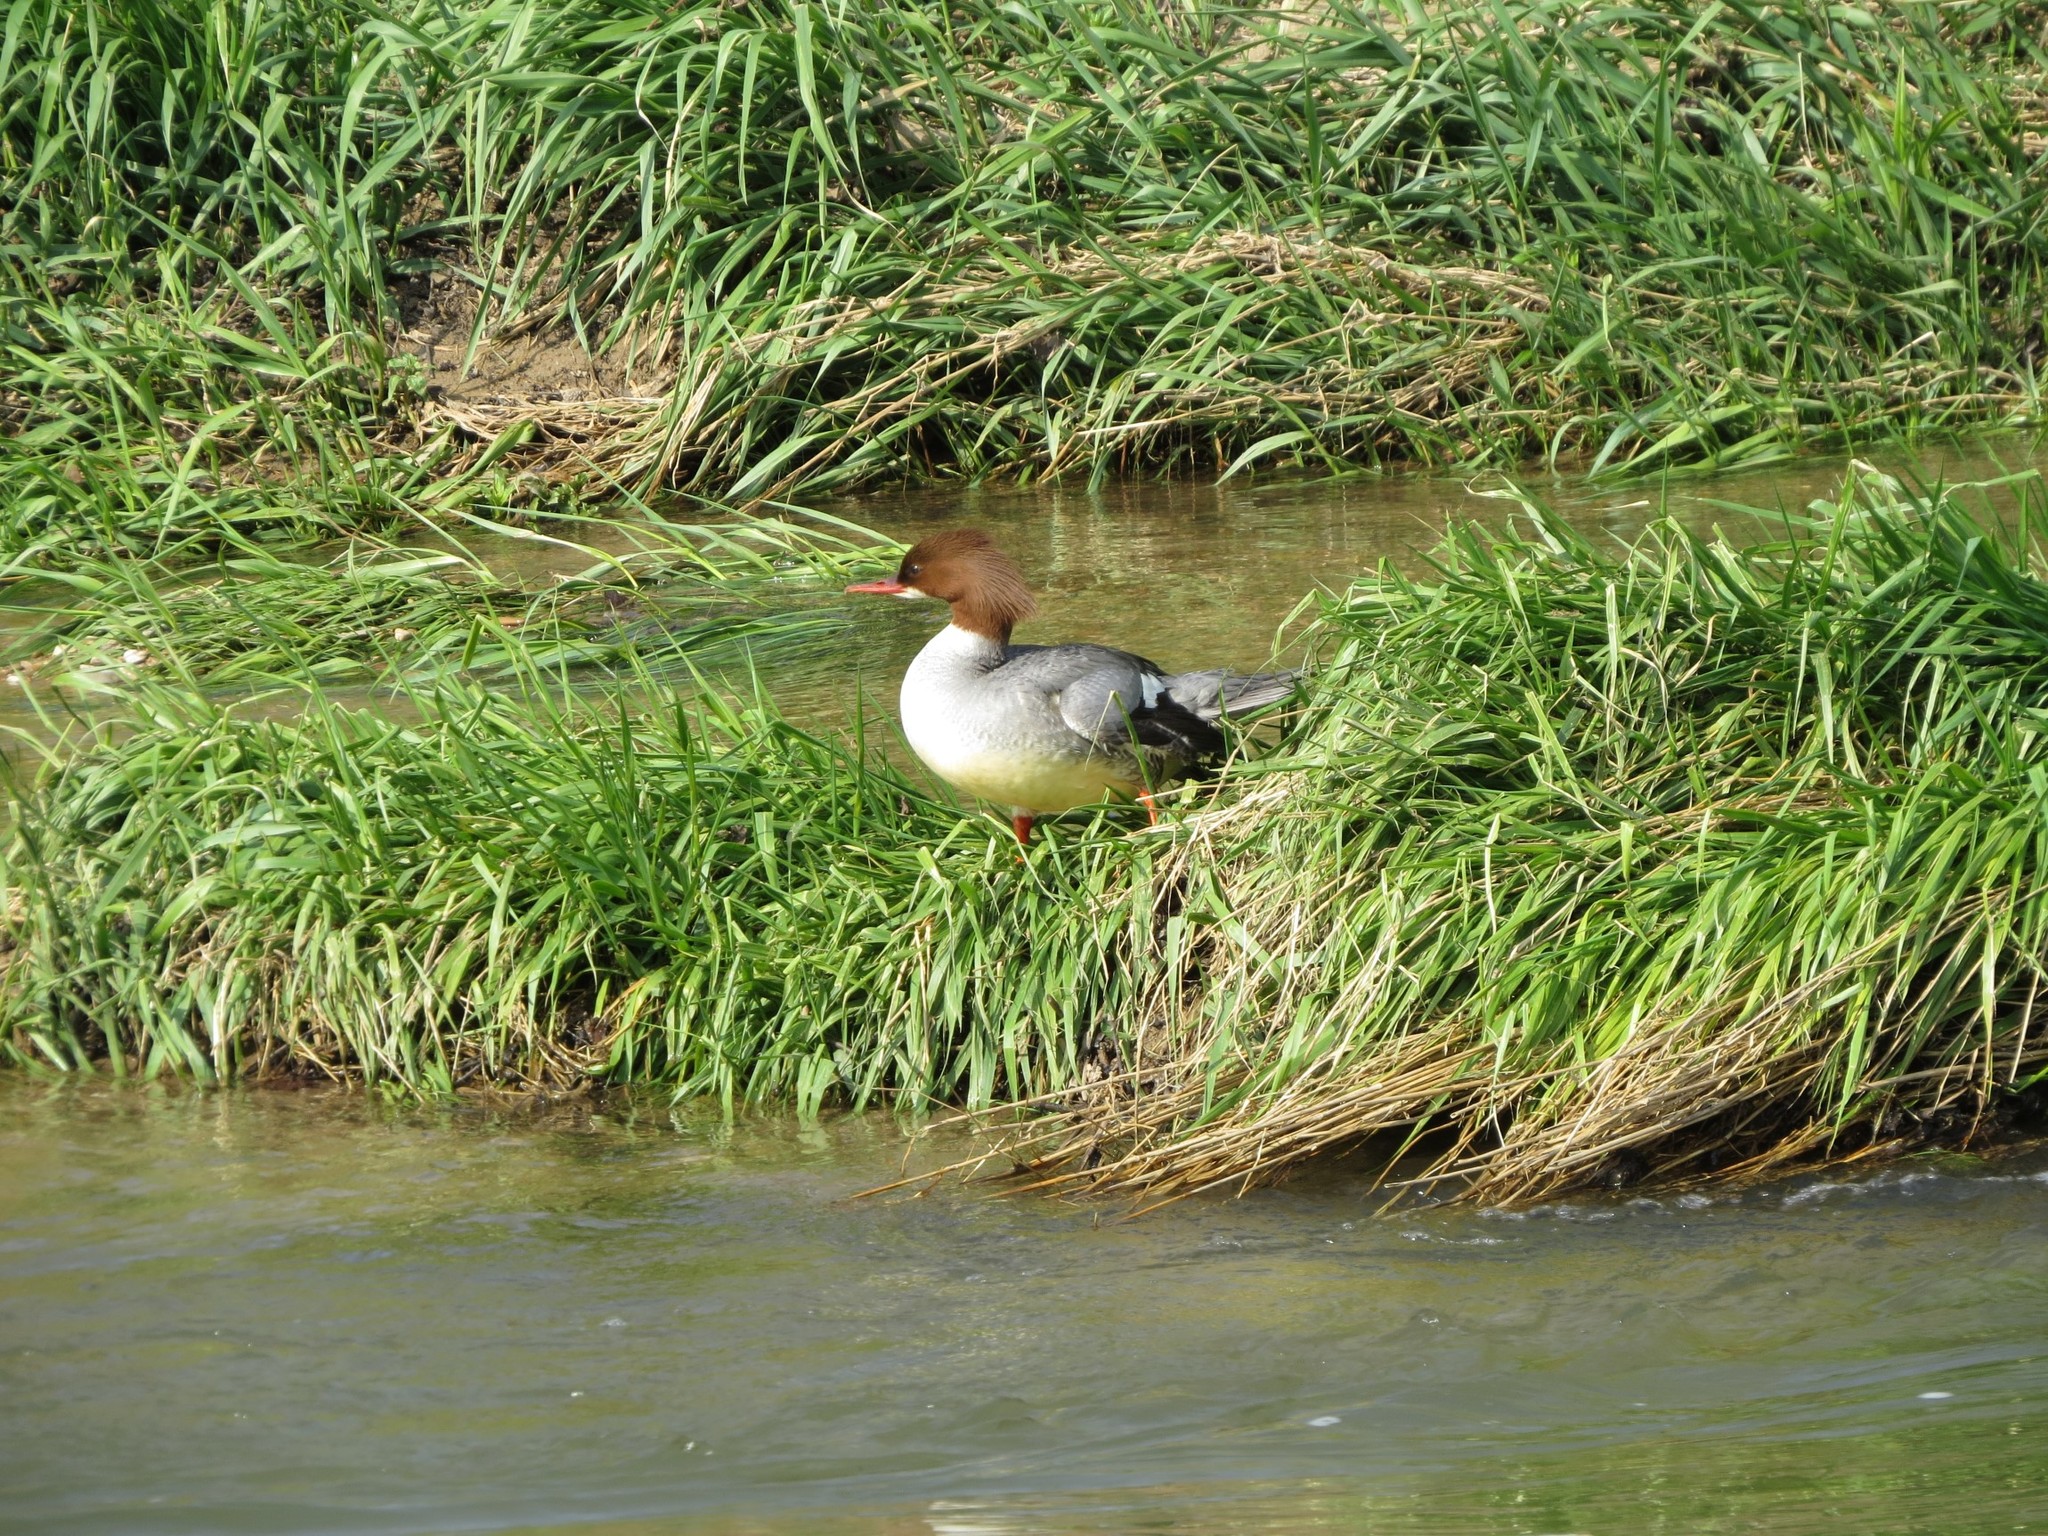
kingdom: Animalia
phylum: Chordata
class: Aves
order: Anseriformes
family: Anatidae
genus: Mergus
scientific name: Mergus merganser
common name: Common merganser
